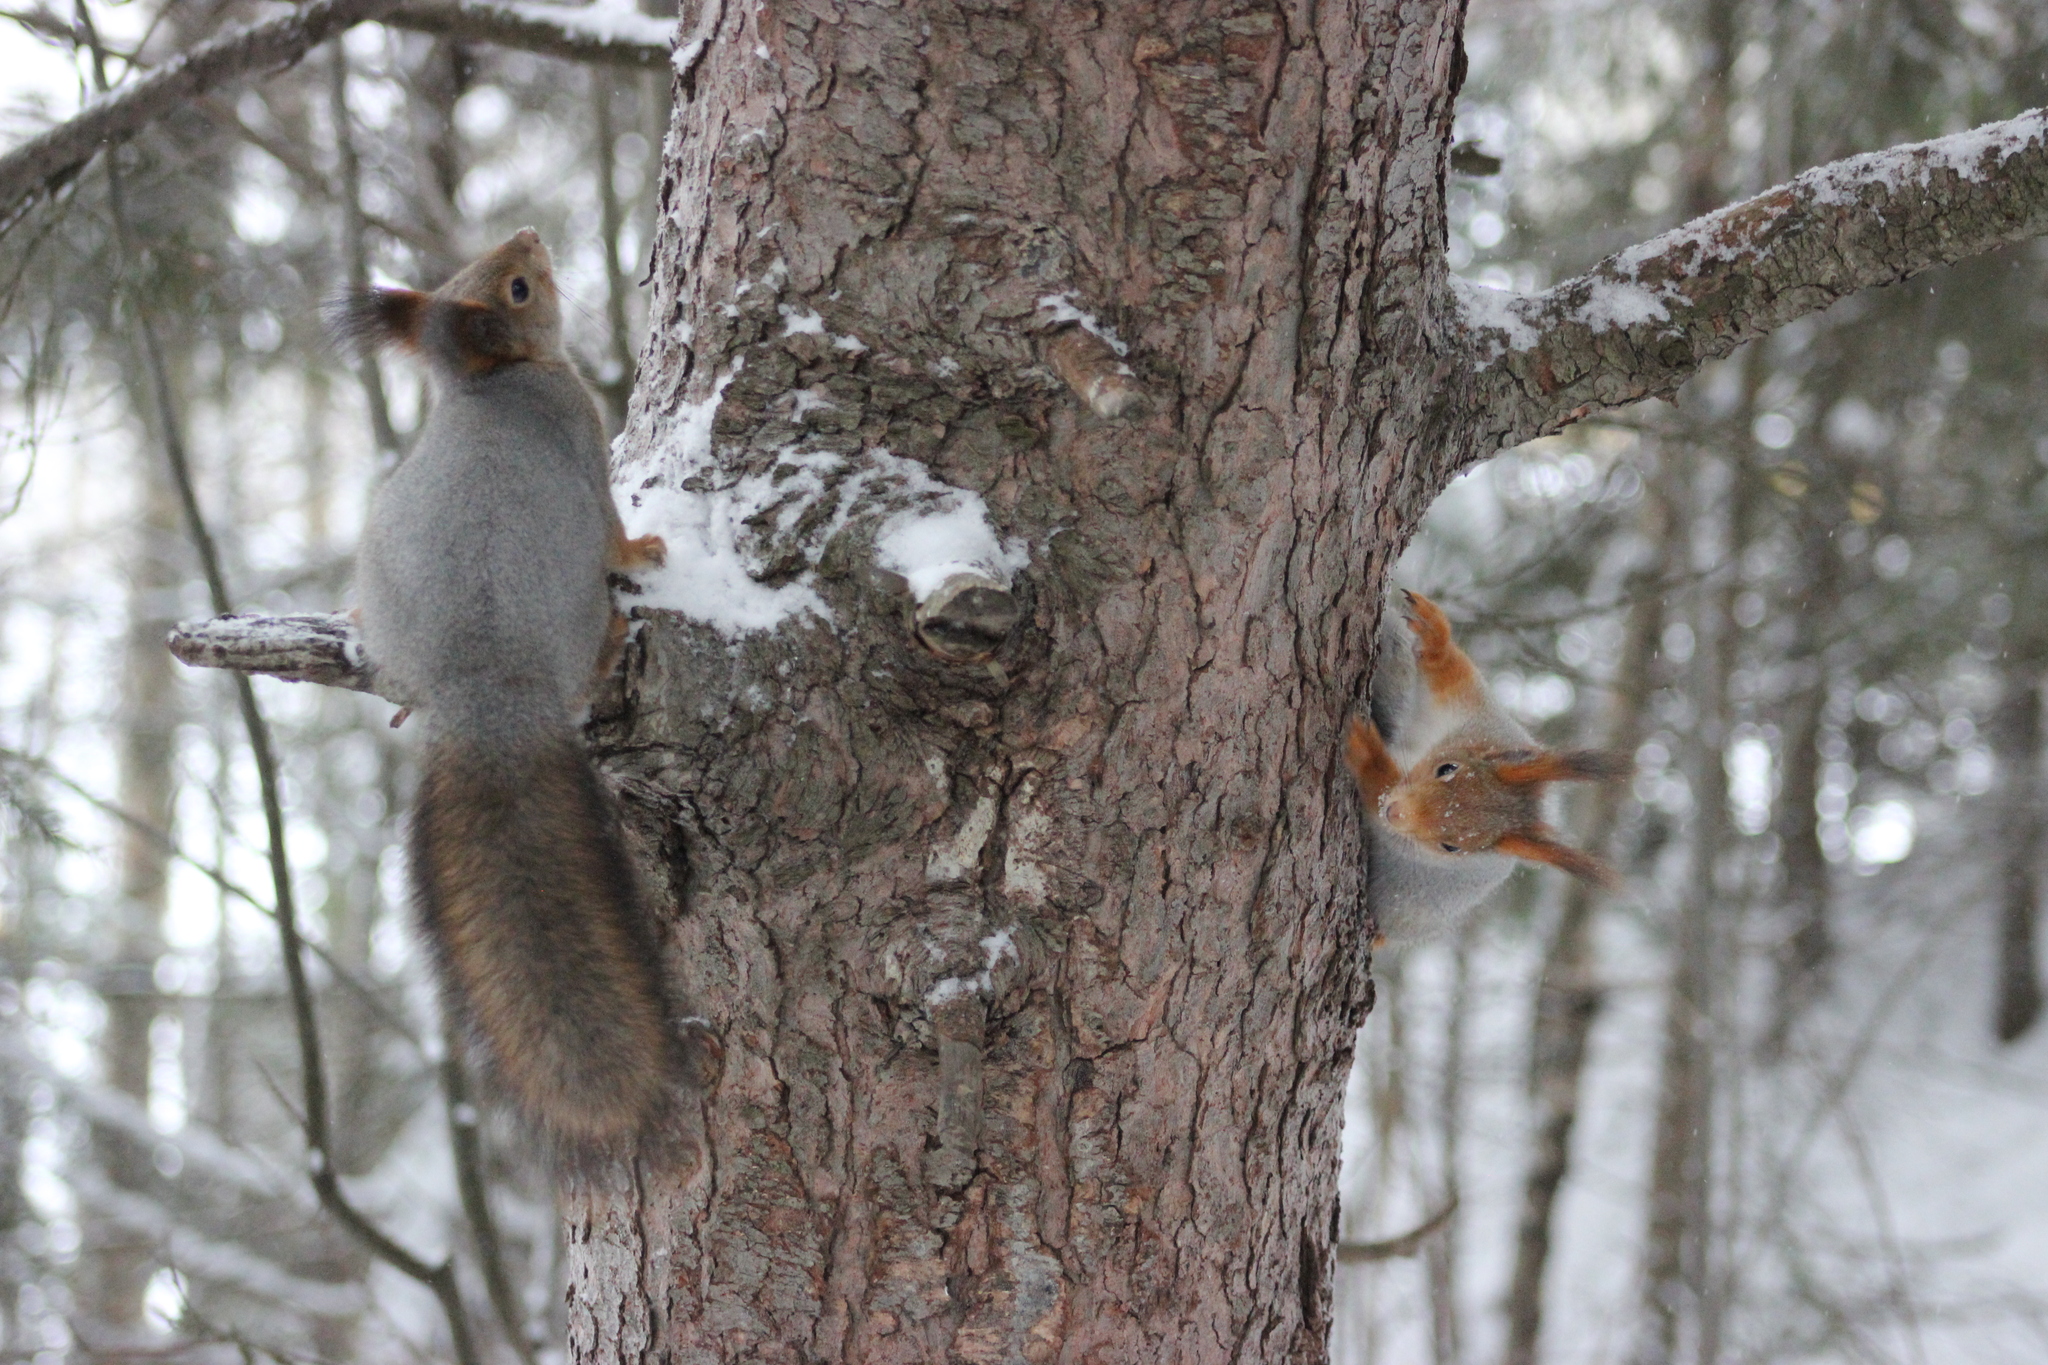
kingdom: Animalia
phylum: Chordata
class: Mammalia
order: Rodentia
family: Sciuridae
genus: Sciurus
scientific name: Sciurus vulgaris
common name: Eurasian red squirrel
